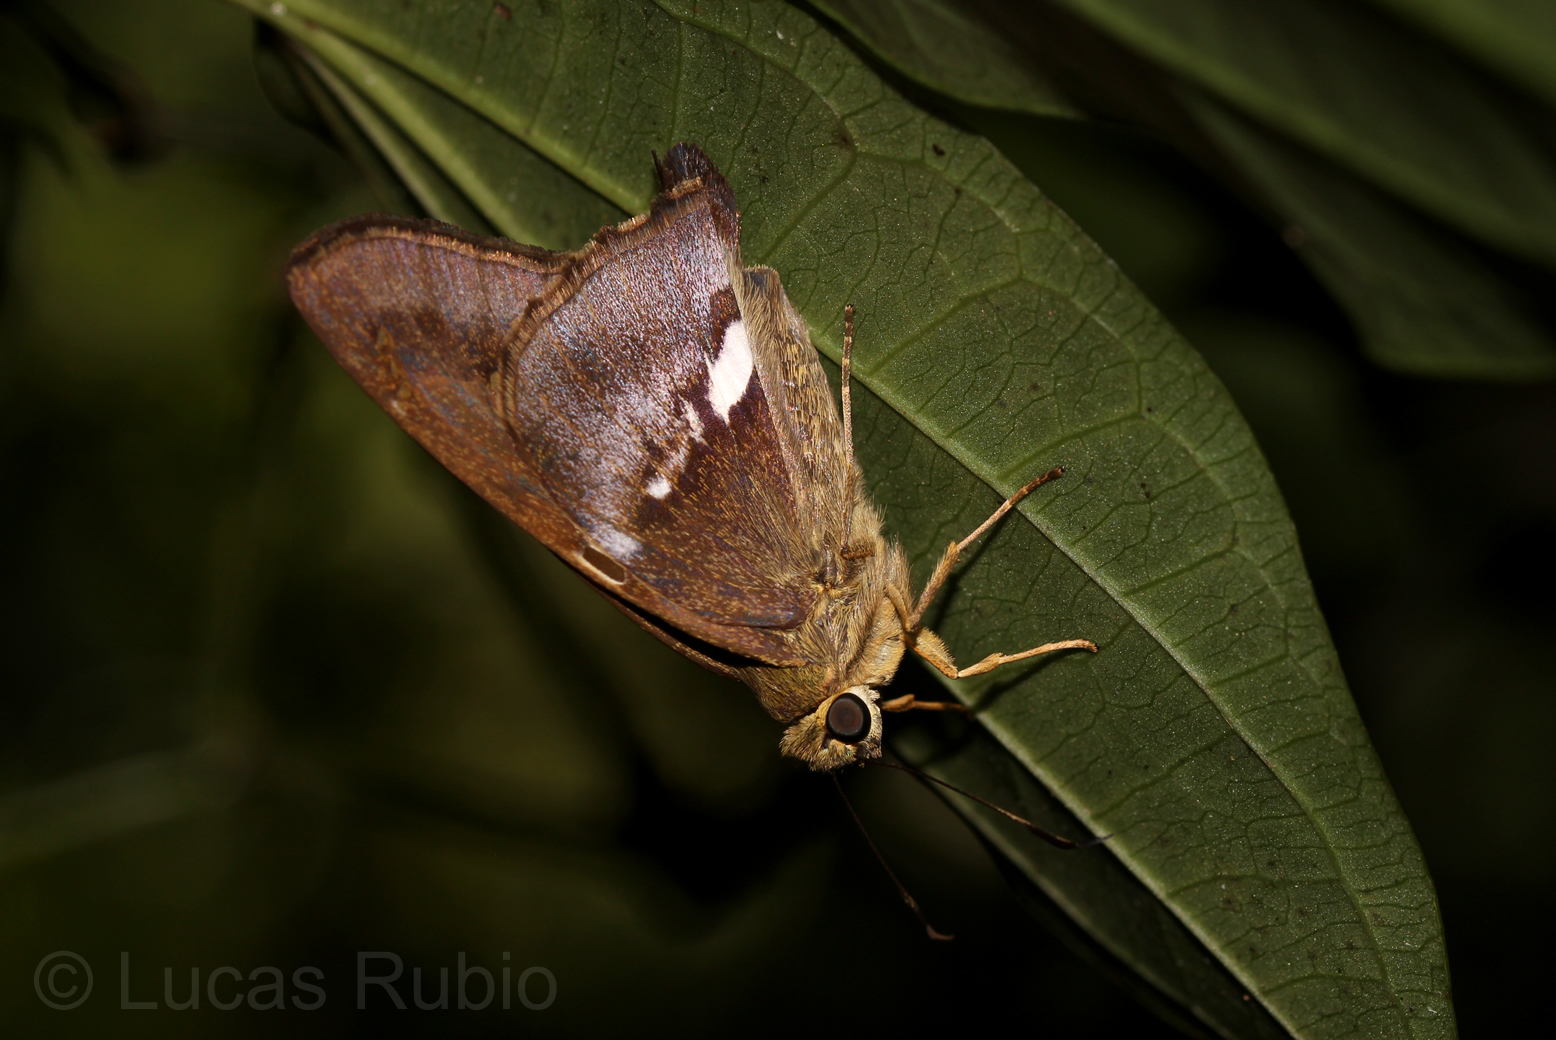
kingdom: Animalia
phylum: Arthropoda
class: Insecta
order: Lepidoptera
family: Hesperiidae
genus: Aguna
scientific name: Aguna asander
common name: Gold-spotted aguna
